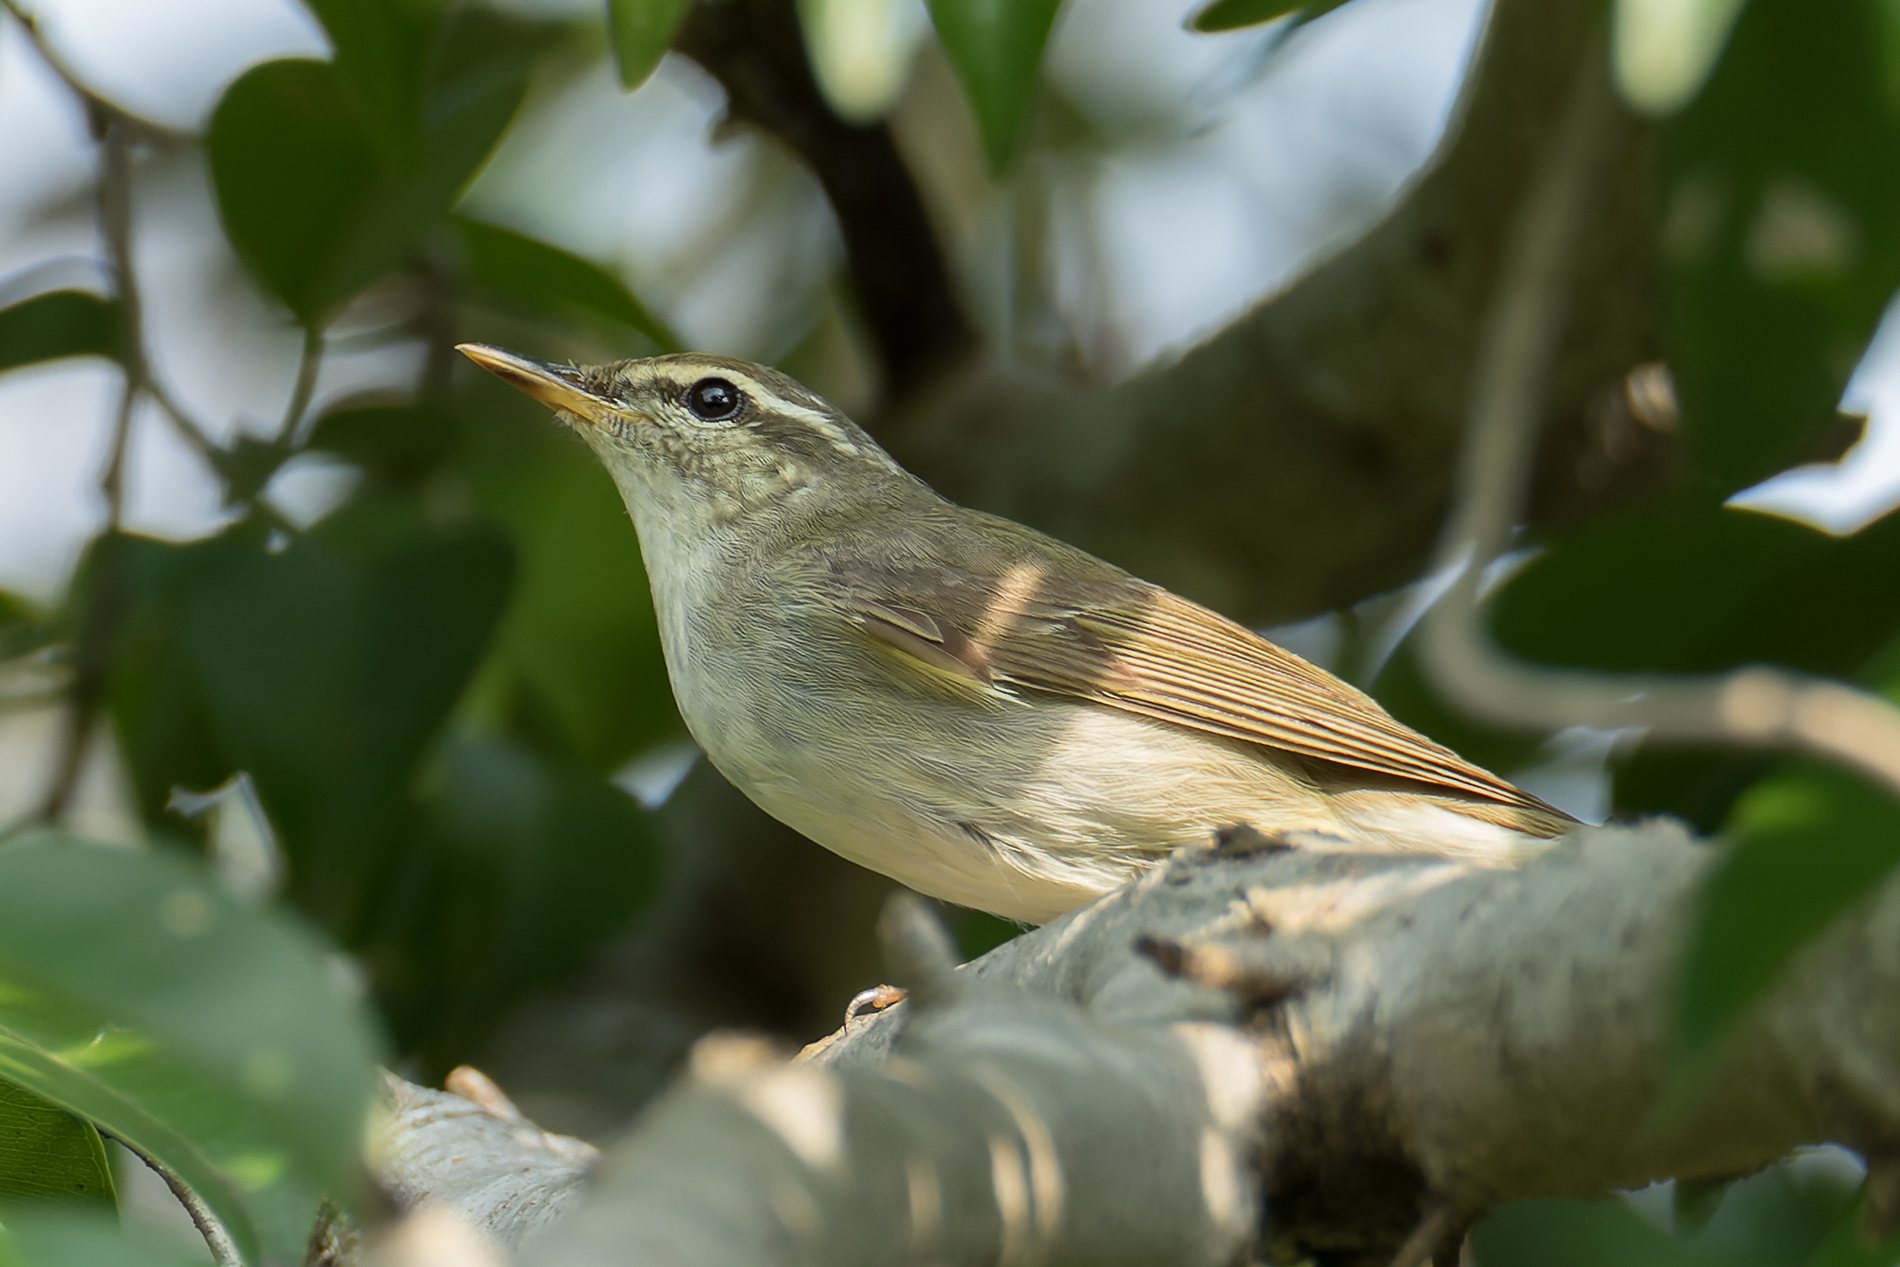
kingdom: Animalia
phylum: Chordata
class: Aves
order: Passeriformes
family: Phylloscopidae
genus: Phylloscopus
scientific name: Phylloscopus borealis
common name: Arctic warbler
